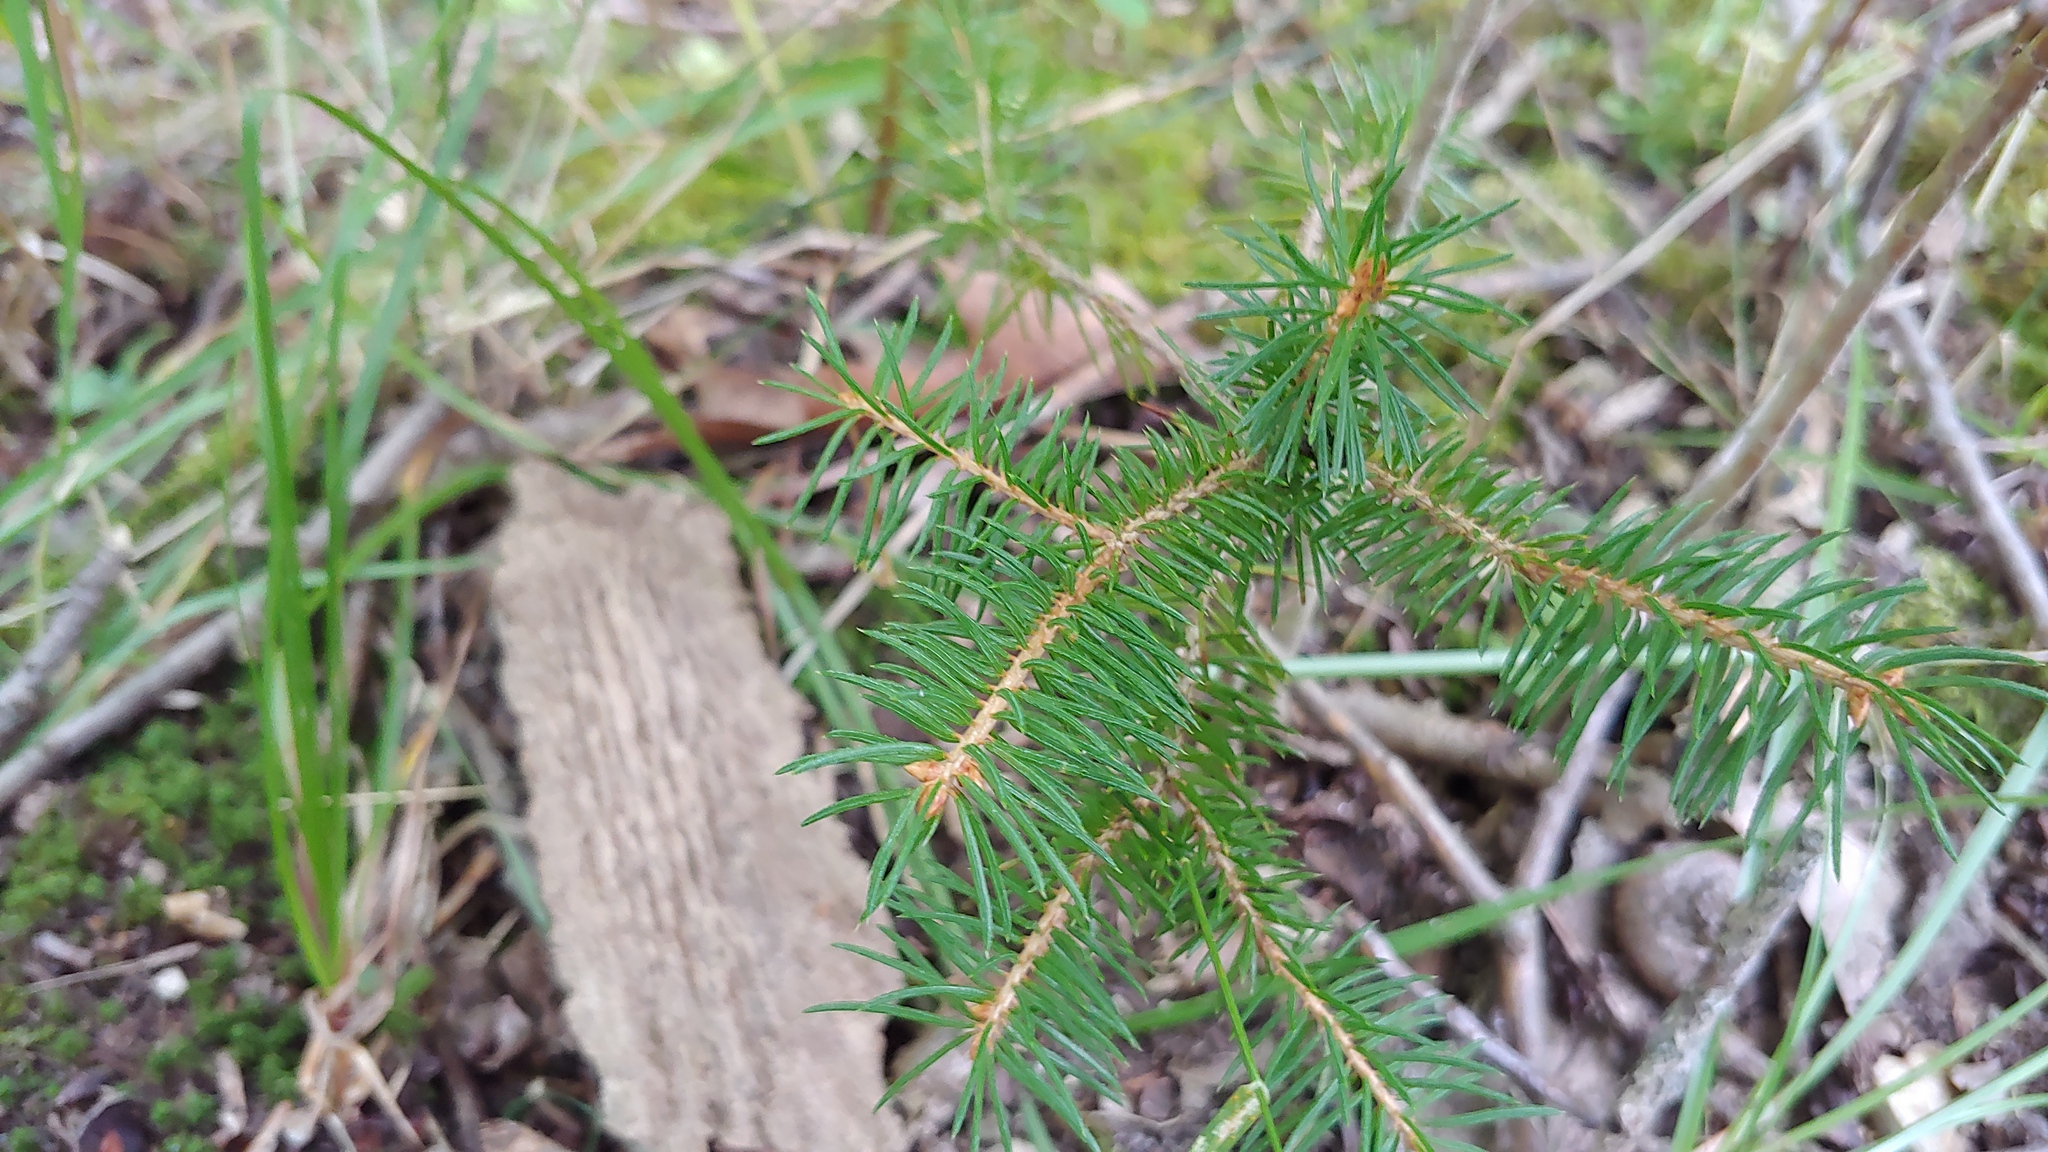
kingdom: Plantae
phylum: Tracheophyta
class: Pinopsida
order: Pinales
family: Pinaceae
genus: Picea
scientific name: Picea abies
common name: Norway spruce
